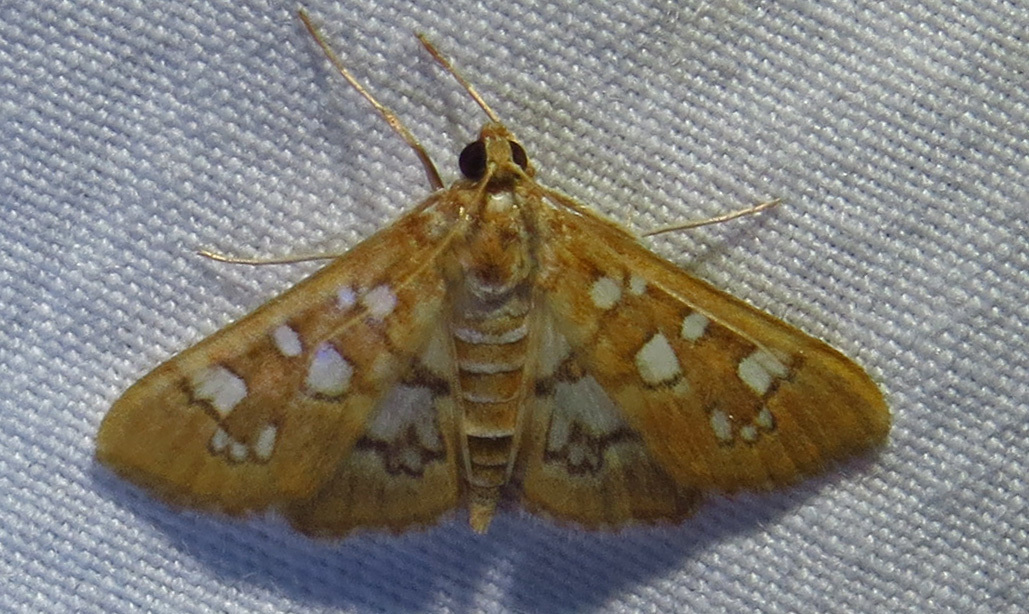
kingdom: Animalia
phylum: Arthropoda
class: Insecta
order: Lepidoptera
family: Crambidae
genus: Samea
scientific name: Samea baccatalis
